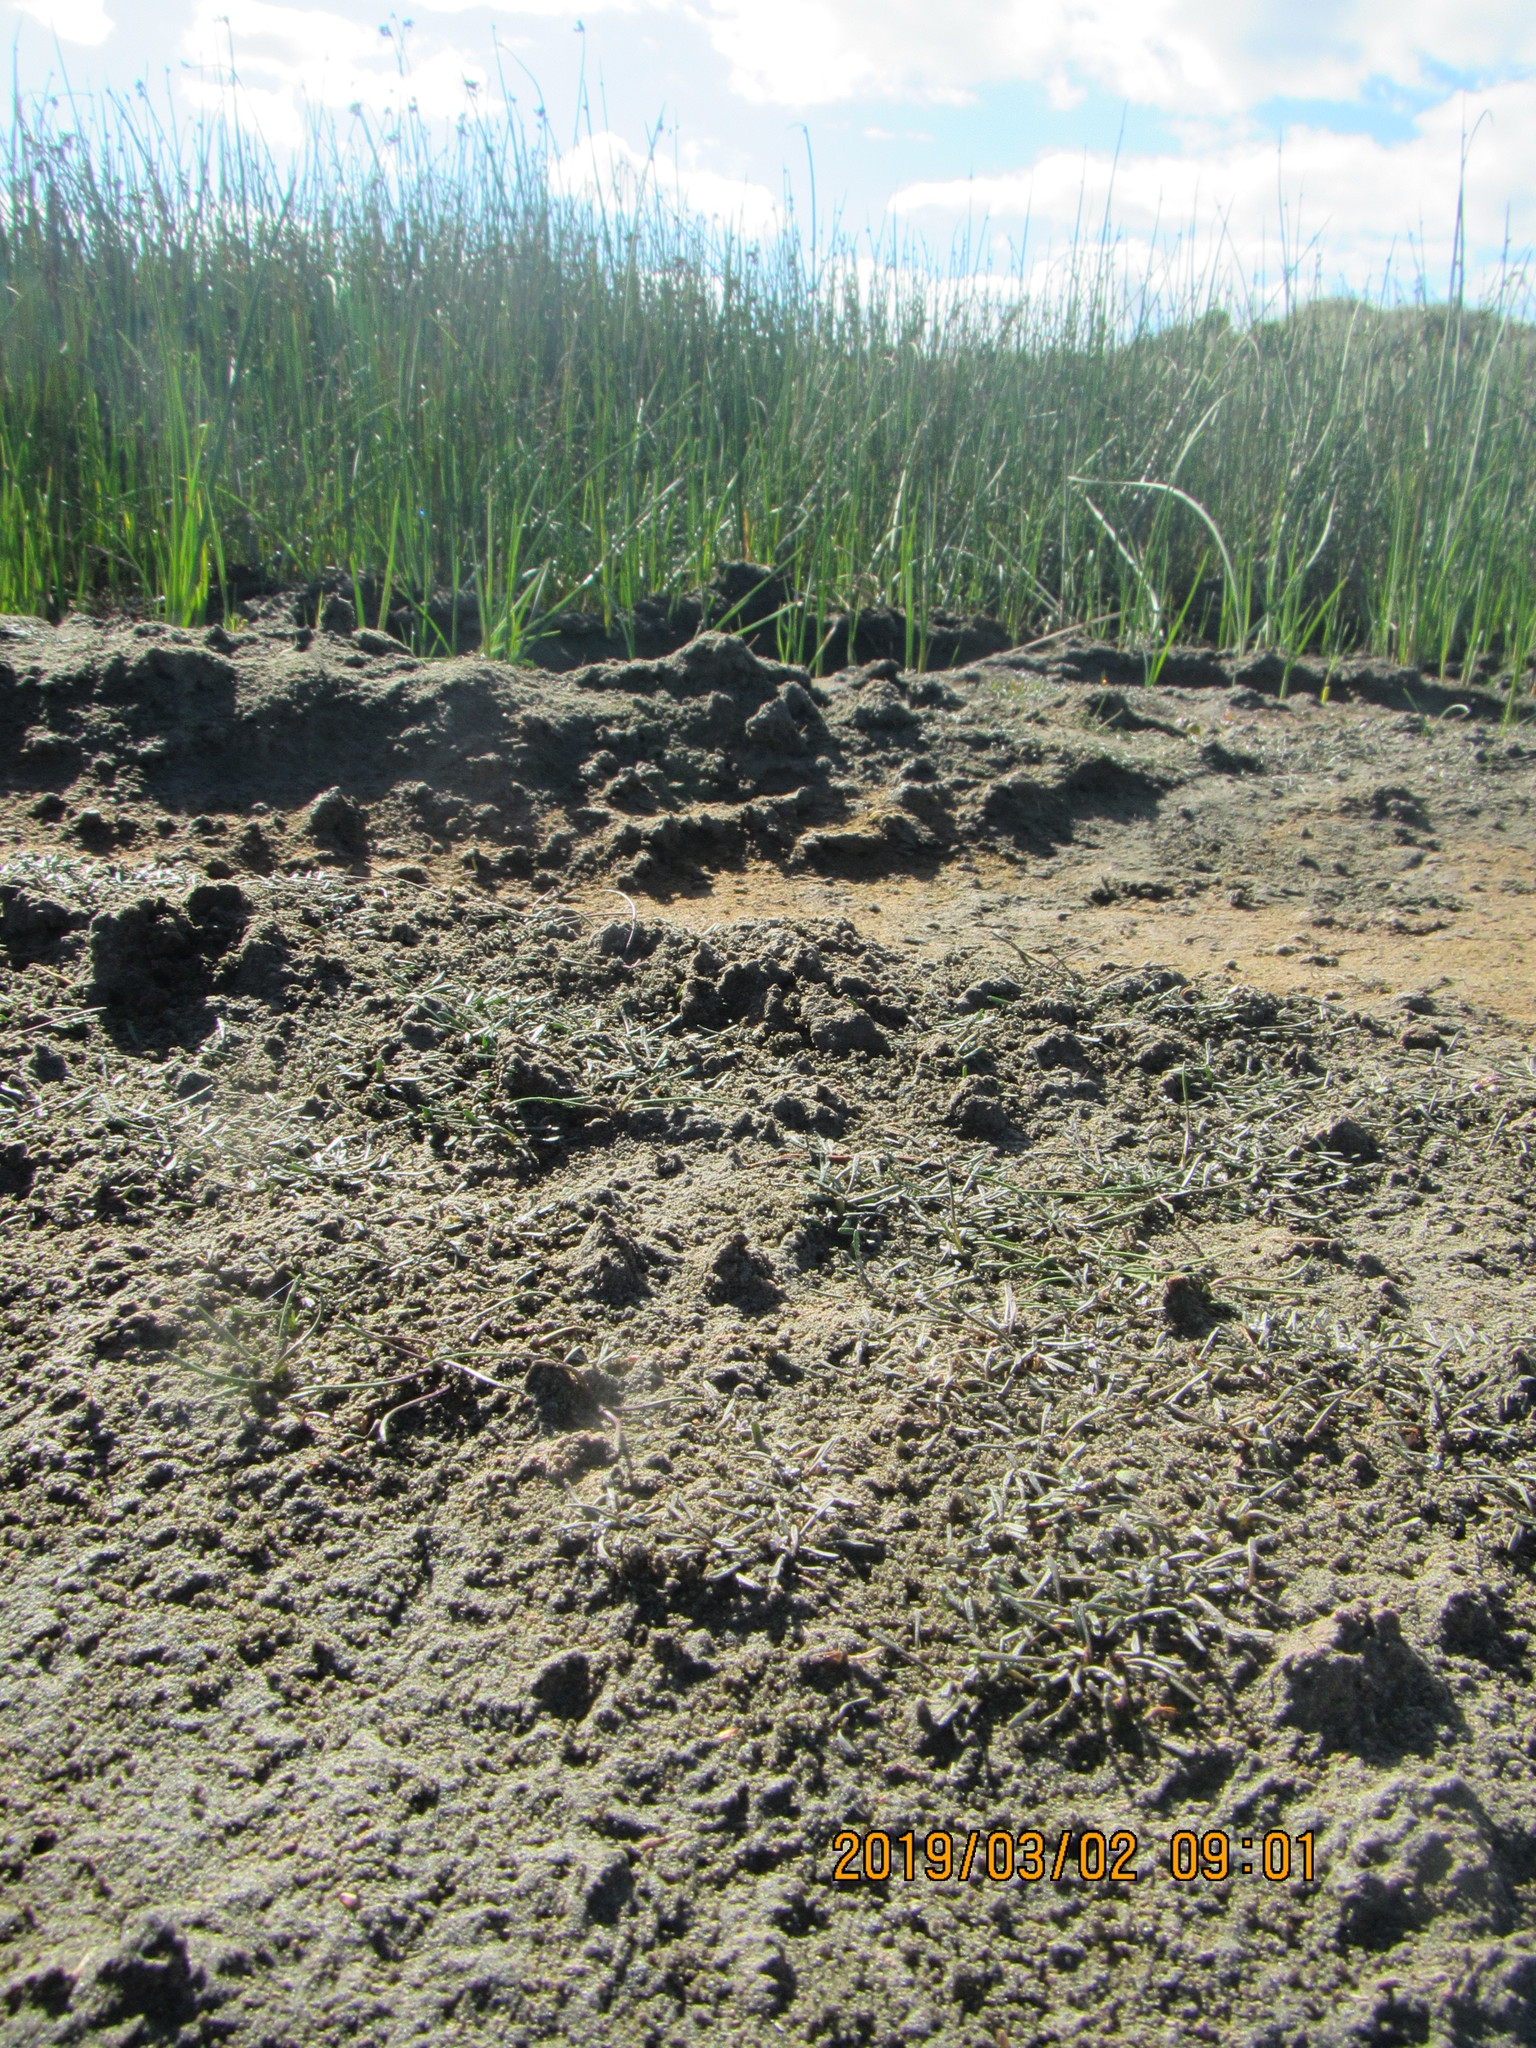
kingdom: Plantae
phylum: Tracheophyta
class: Magnoliopsida
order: Lamiales
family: Scrophulariaceae
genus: Limosella
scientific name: Limosella australis
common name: Welsh mudwort
